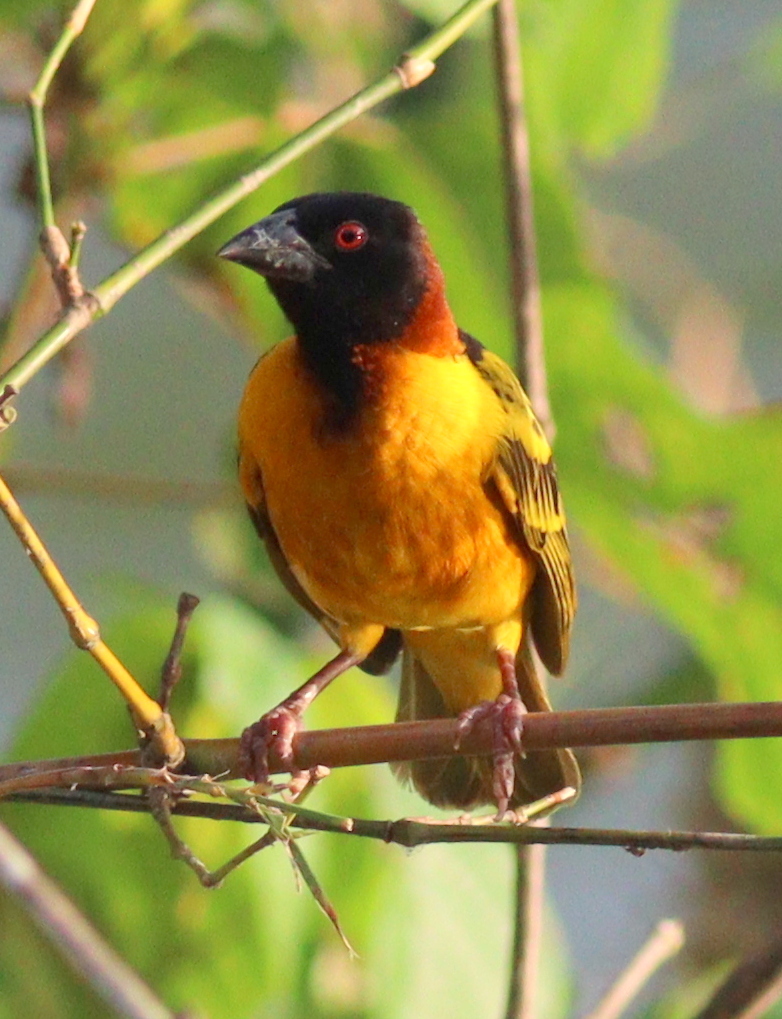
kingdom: Animalia
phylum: Chordata
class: Aves
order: Passeriformes
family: Ploceidae
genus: Ploceus
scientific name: Ploceus cucullatus
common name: Village weaver
